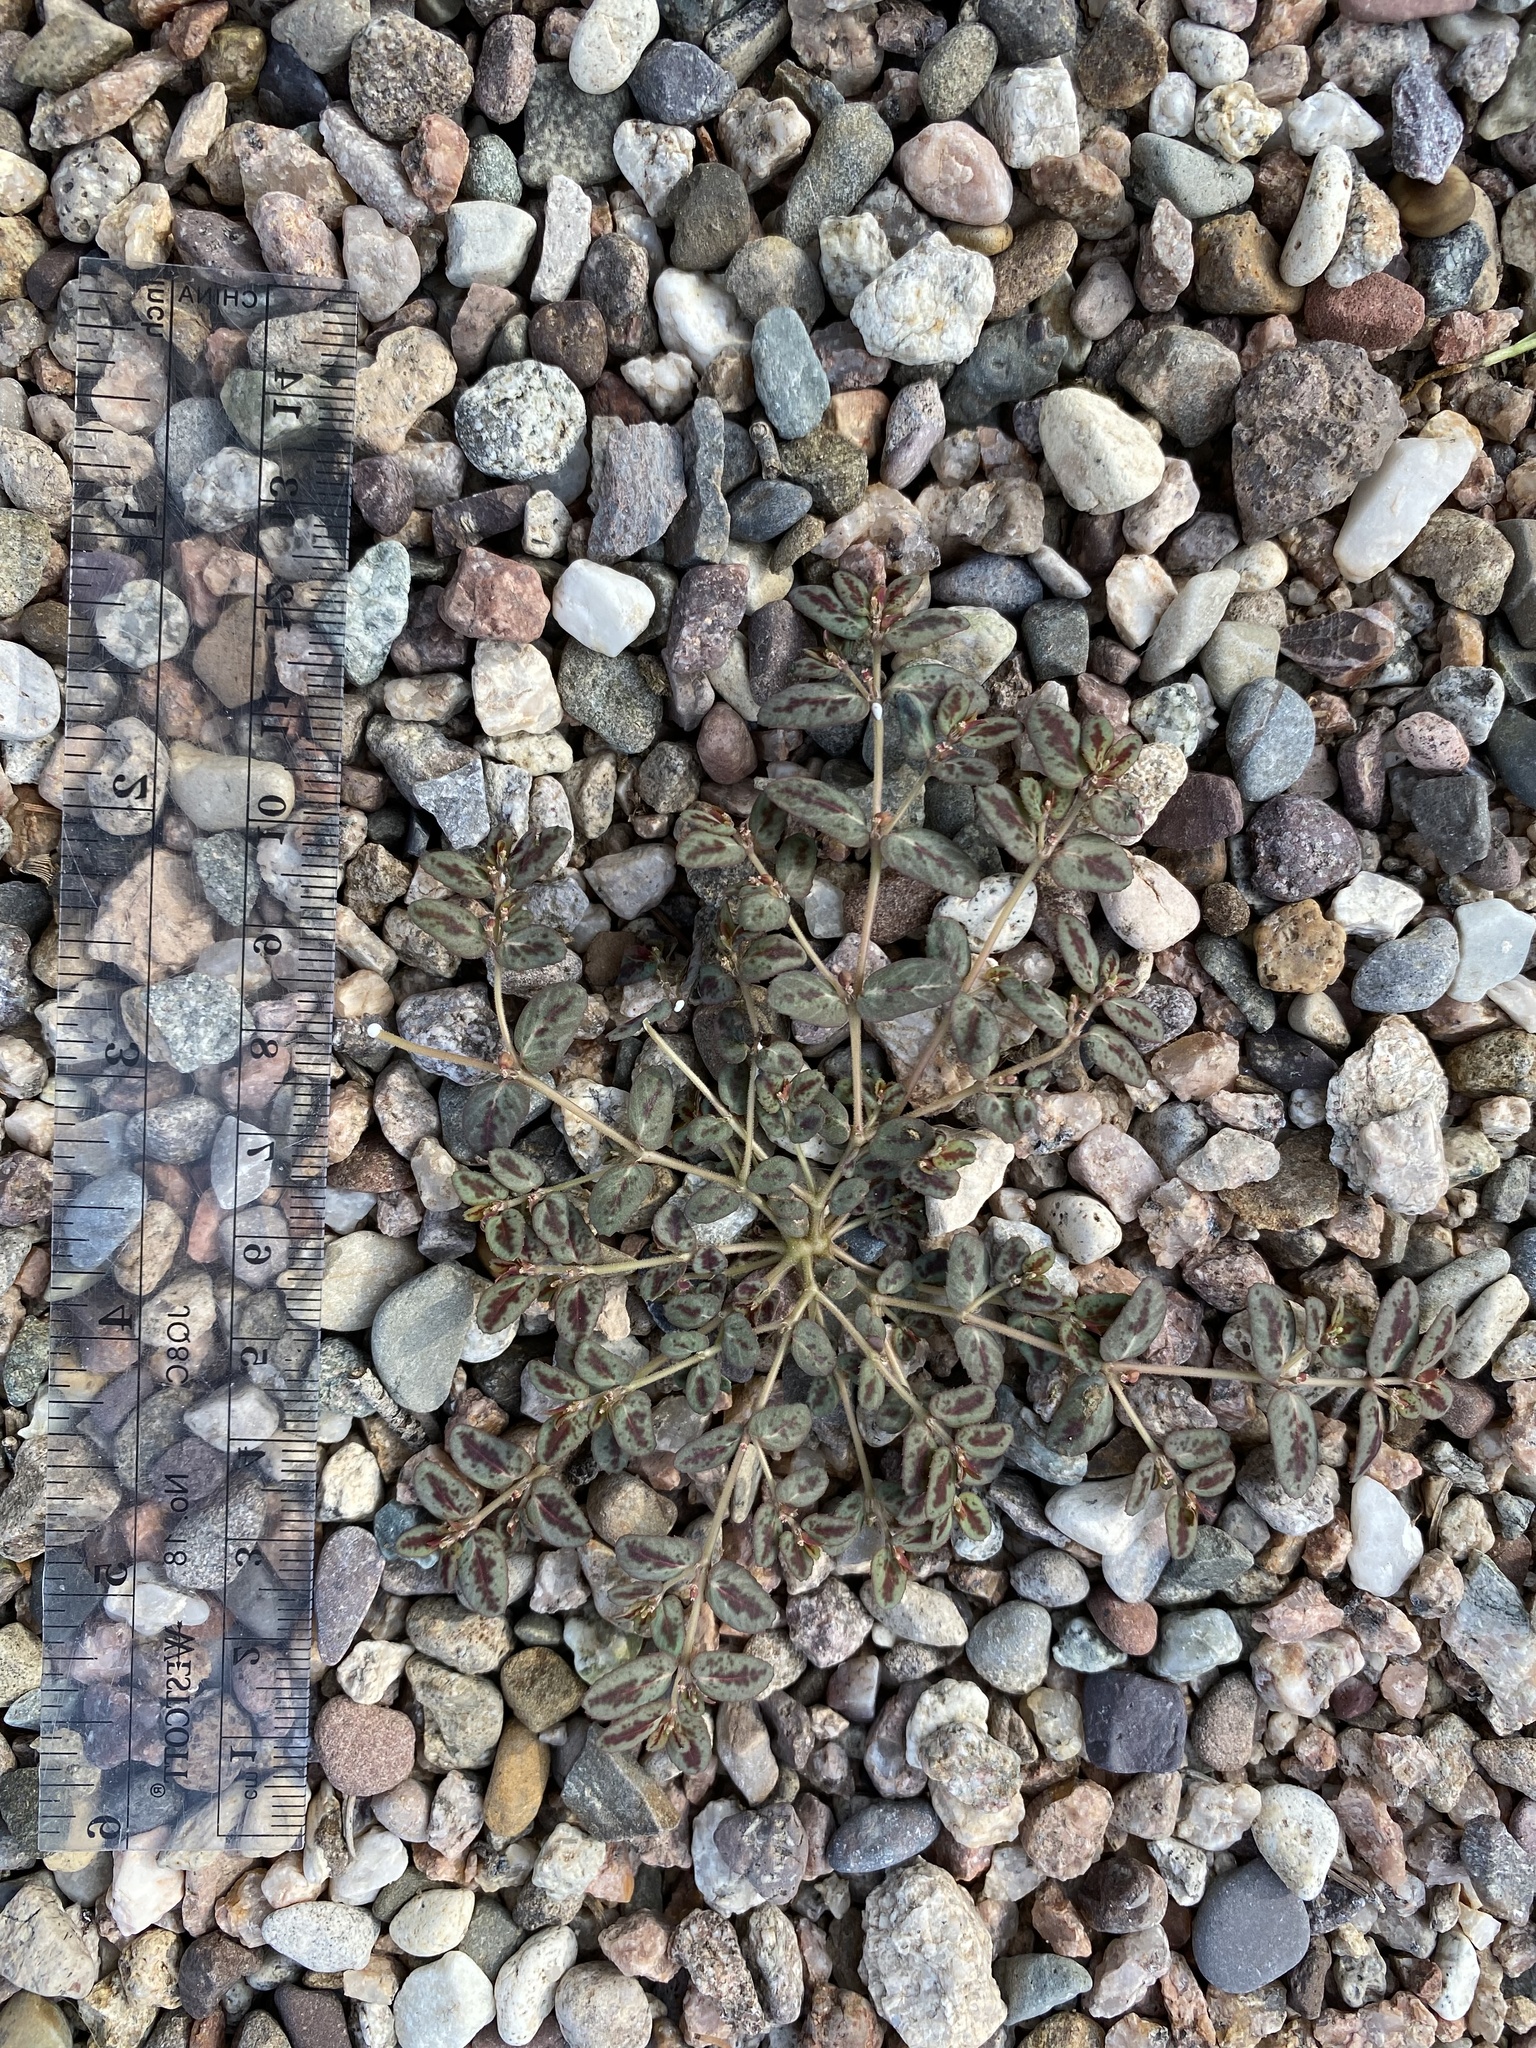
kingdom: Plantae
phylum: Tracheophyta
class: Magnoliopsida
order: Malpighiales
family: Euphorbiaceae
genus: Euphorbia
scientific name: Euphorbia abramsiana
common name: Abram's spurge
